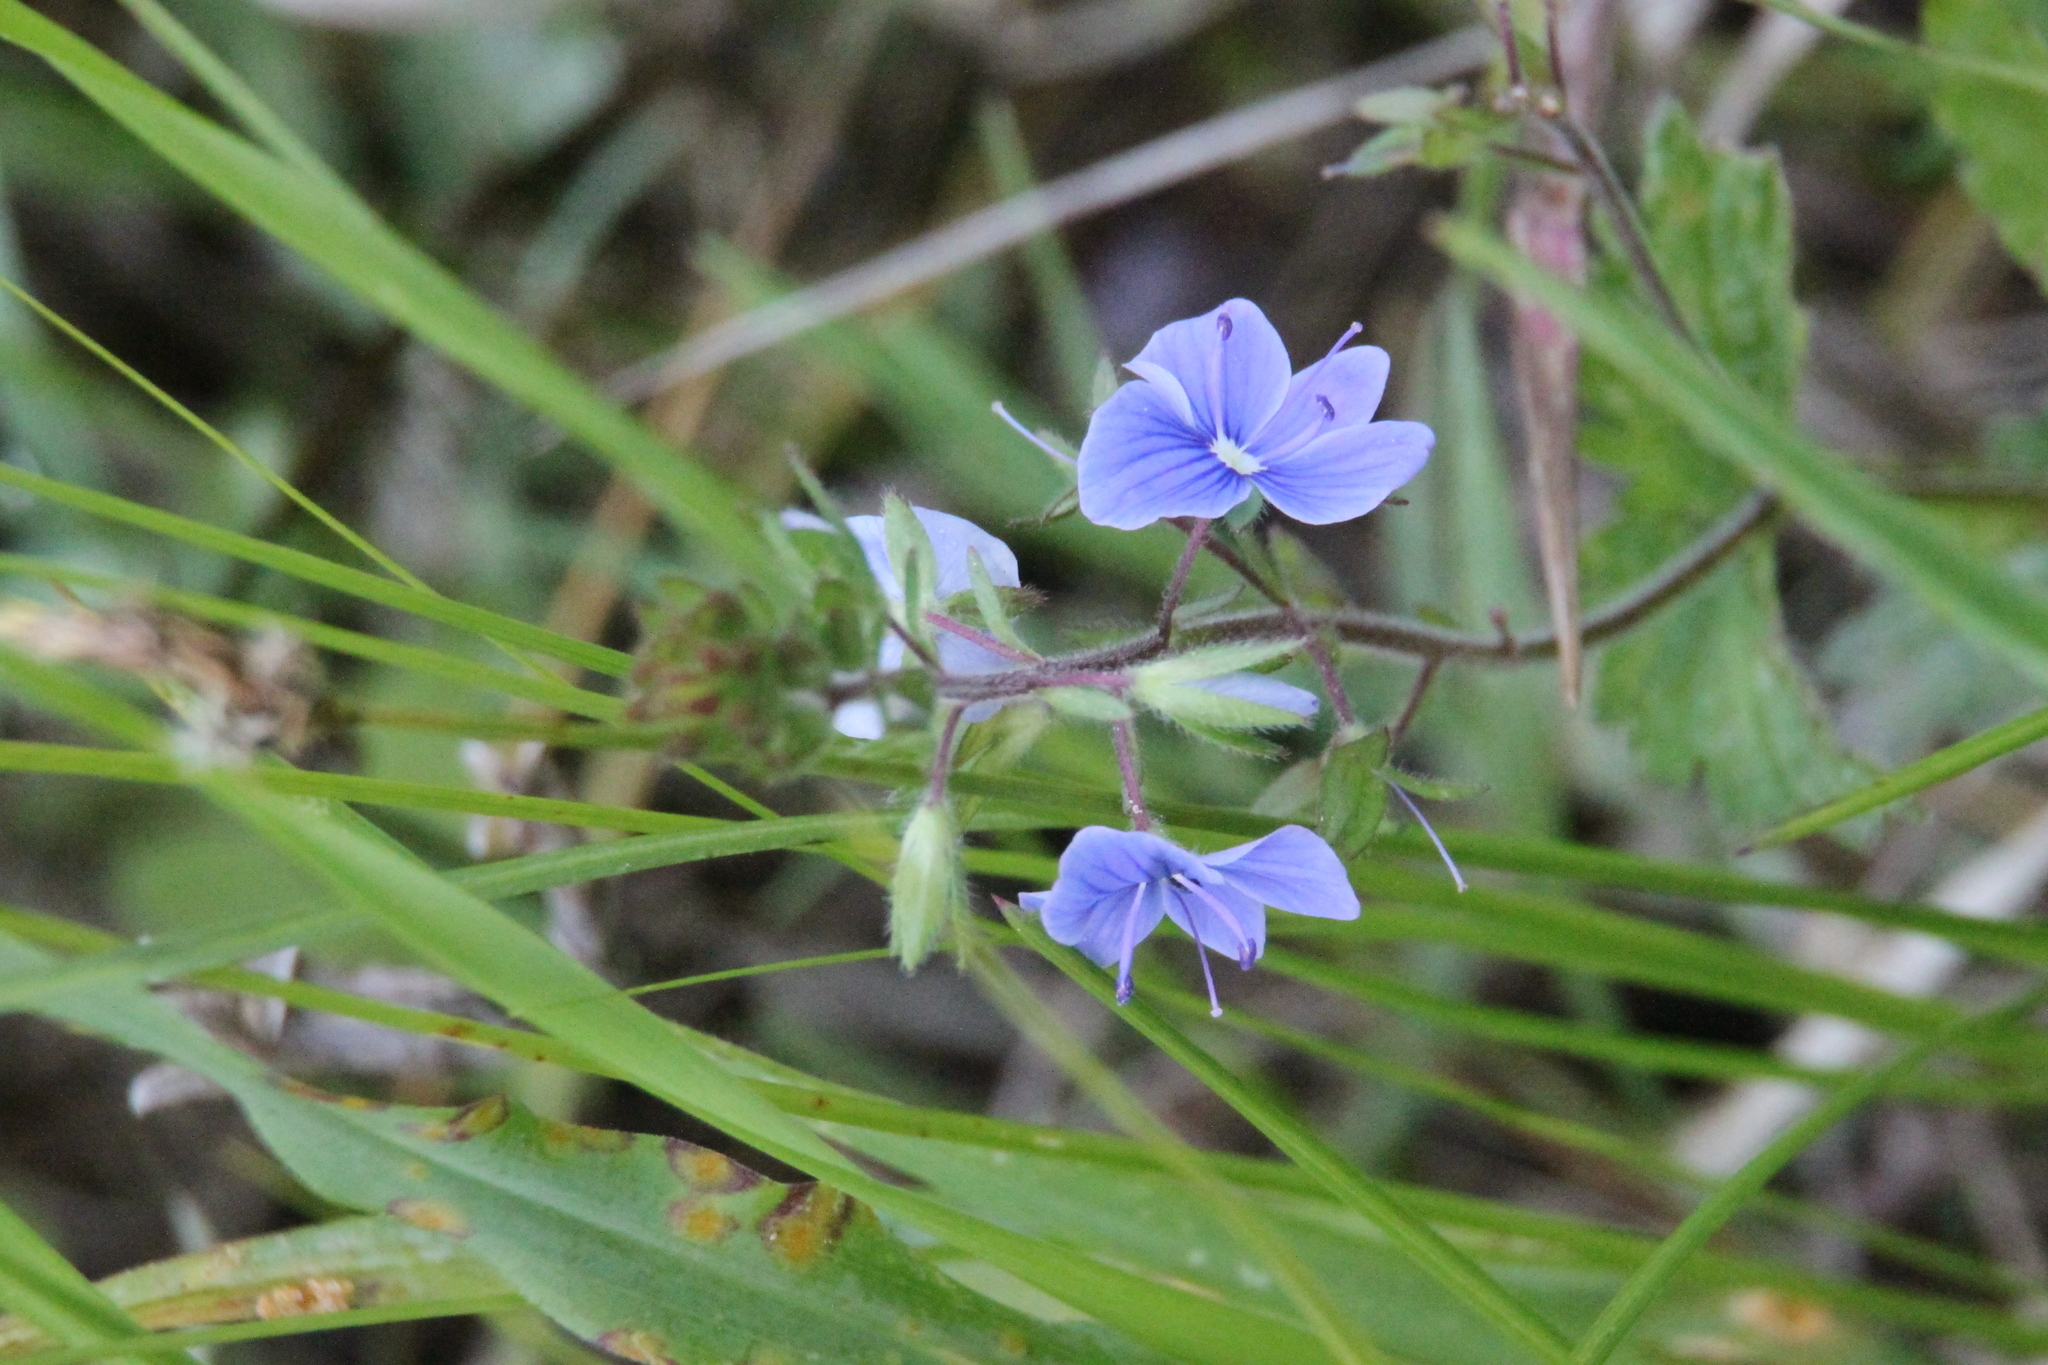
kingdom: Plantae
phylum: Tracheophyta
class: Magnoliopsida
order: Lamiales
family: Plantaginaceae
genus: Veronica
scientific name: Veronica chamaedrys
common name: Germander speedwell
